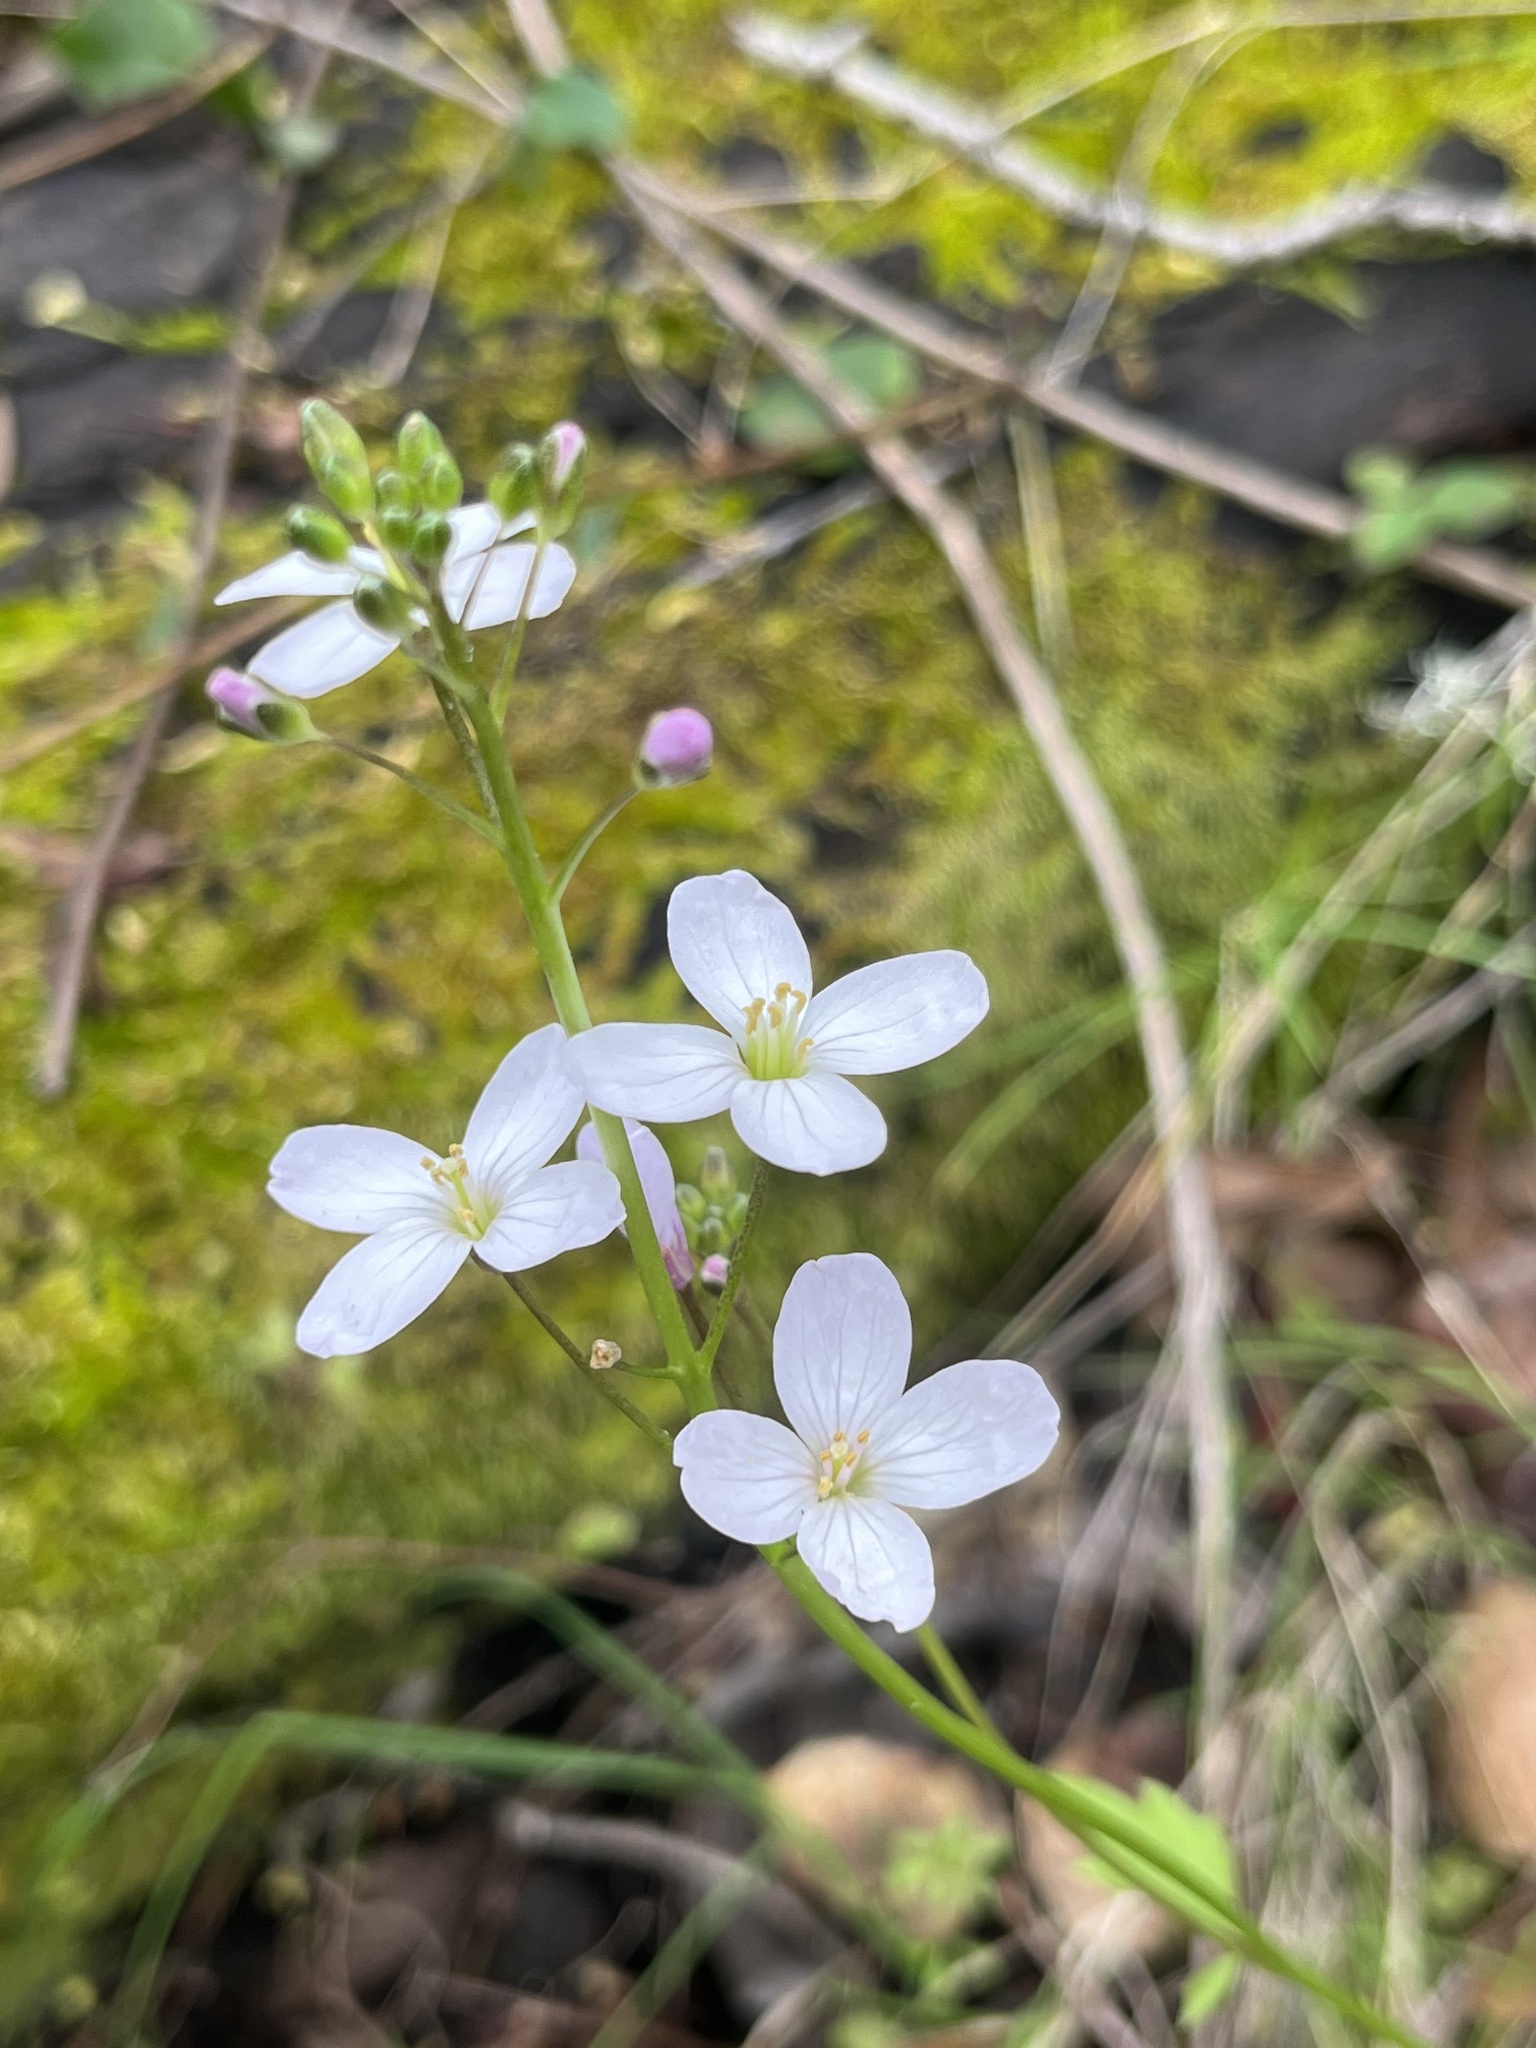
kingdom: Plantae
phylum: Tracheophyta
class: Magnoliopsida
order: Brassicales
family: Brassicaceae
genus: Cardamine
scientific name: Cardamine californica
